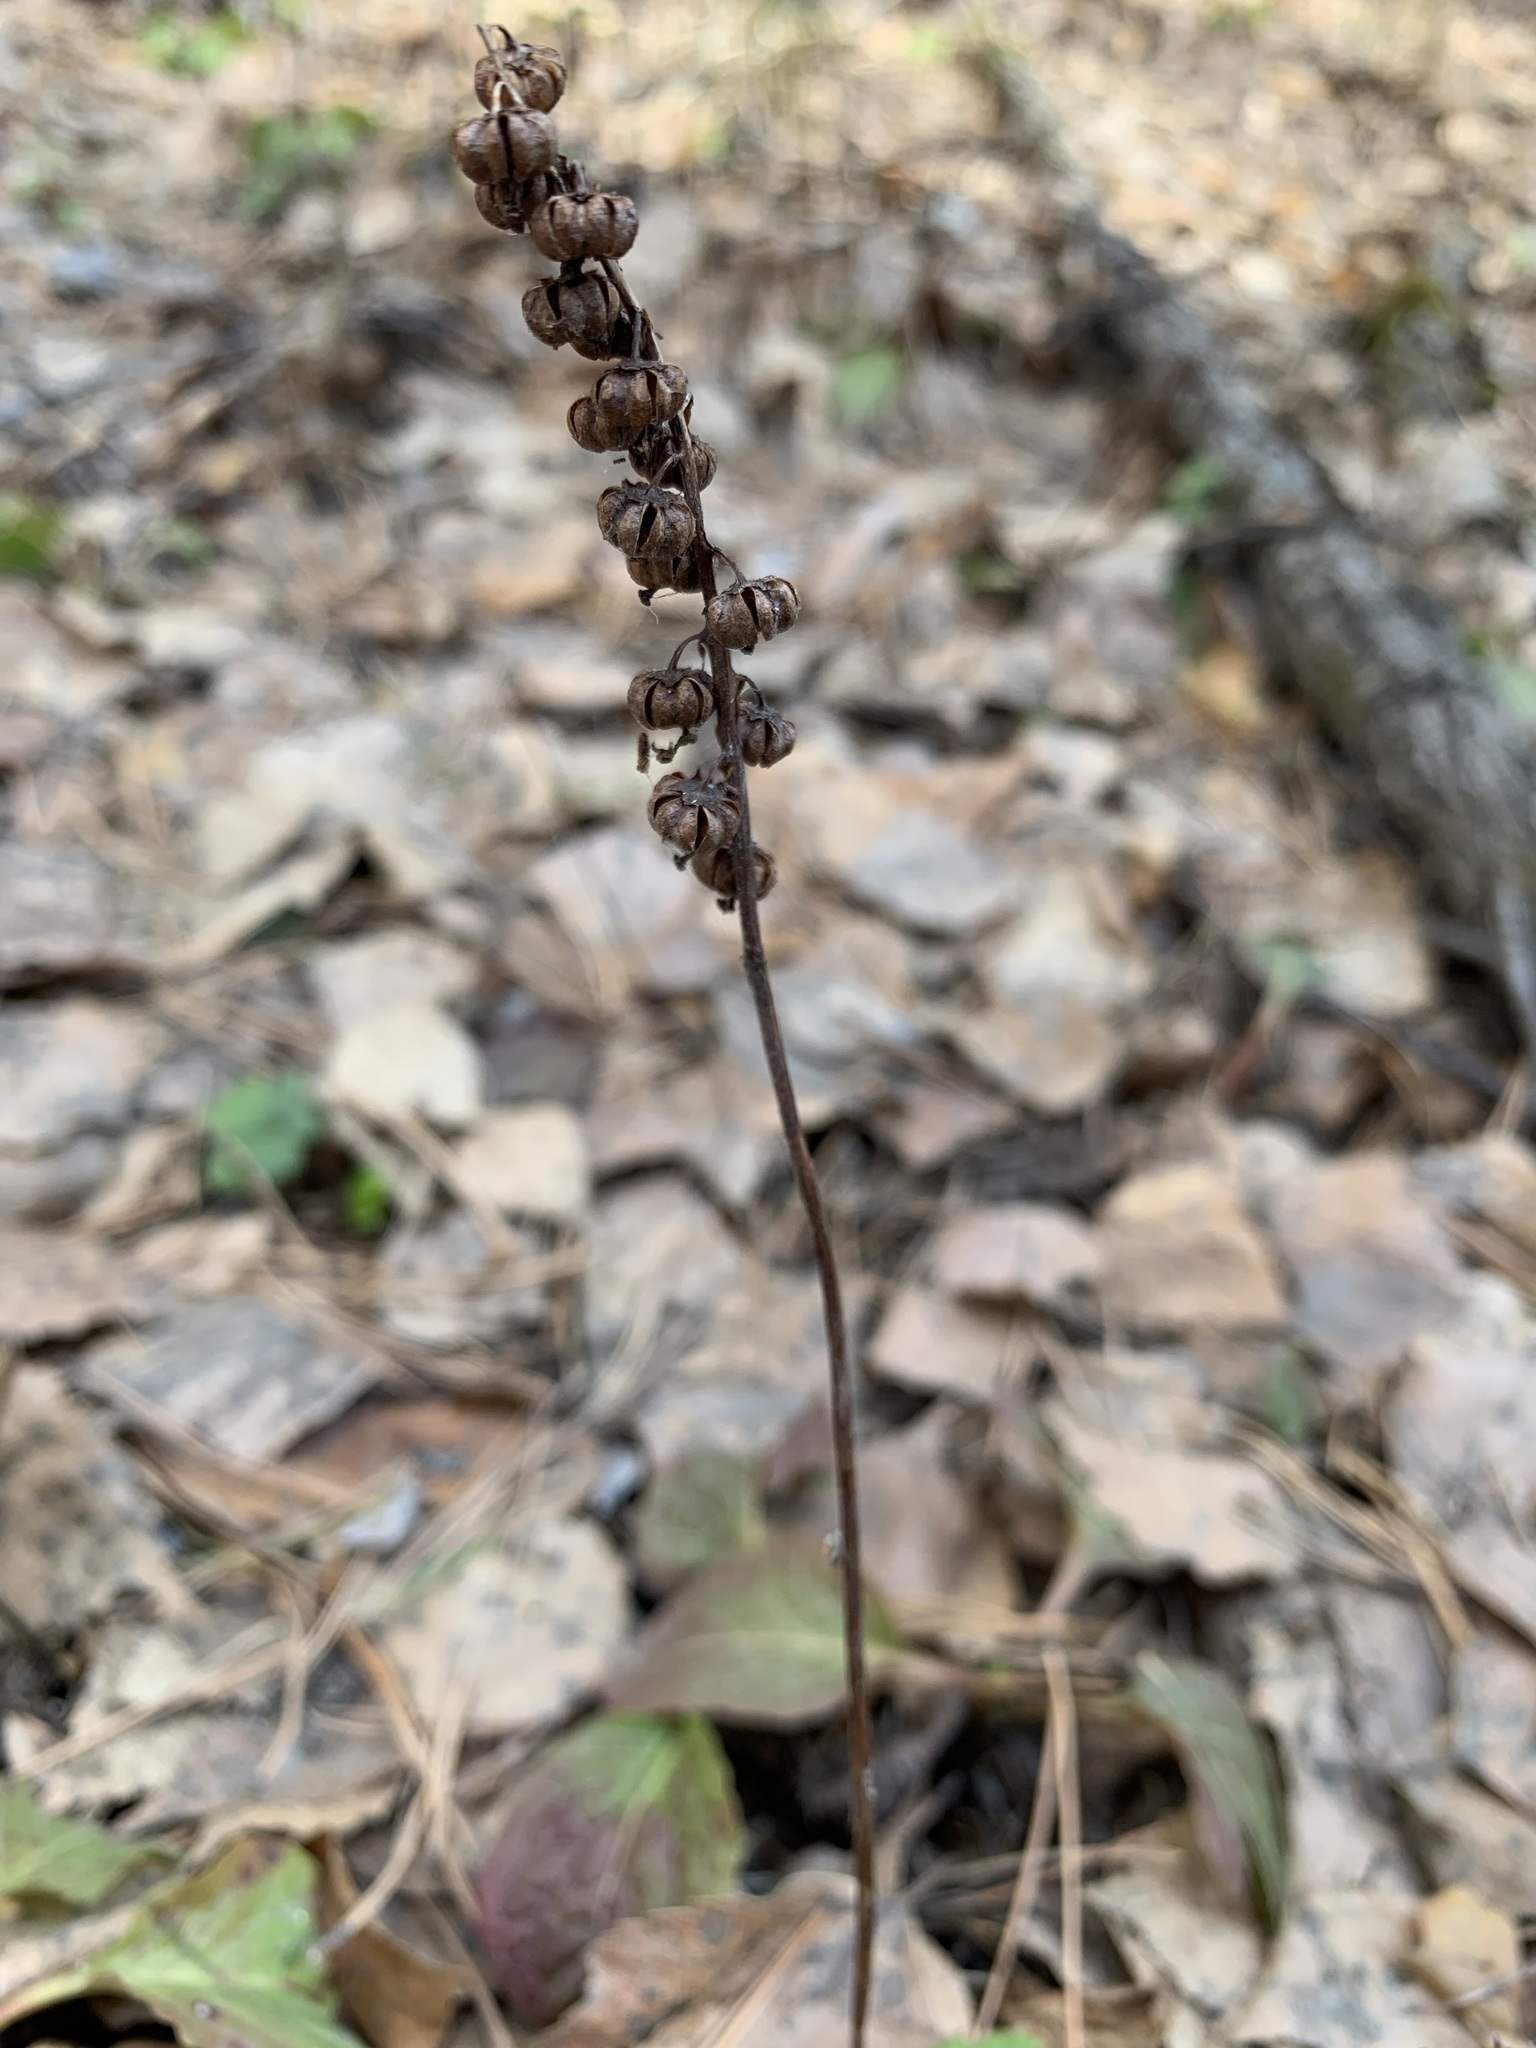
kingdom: Plantae
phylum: Tracheophyta
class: Magnoliopsida
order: Ericales
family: Ericaceae
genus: Pyrola
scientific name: Pyrola minor
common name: Common wintergreen
